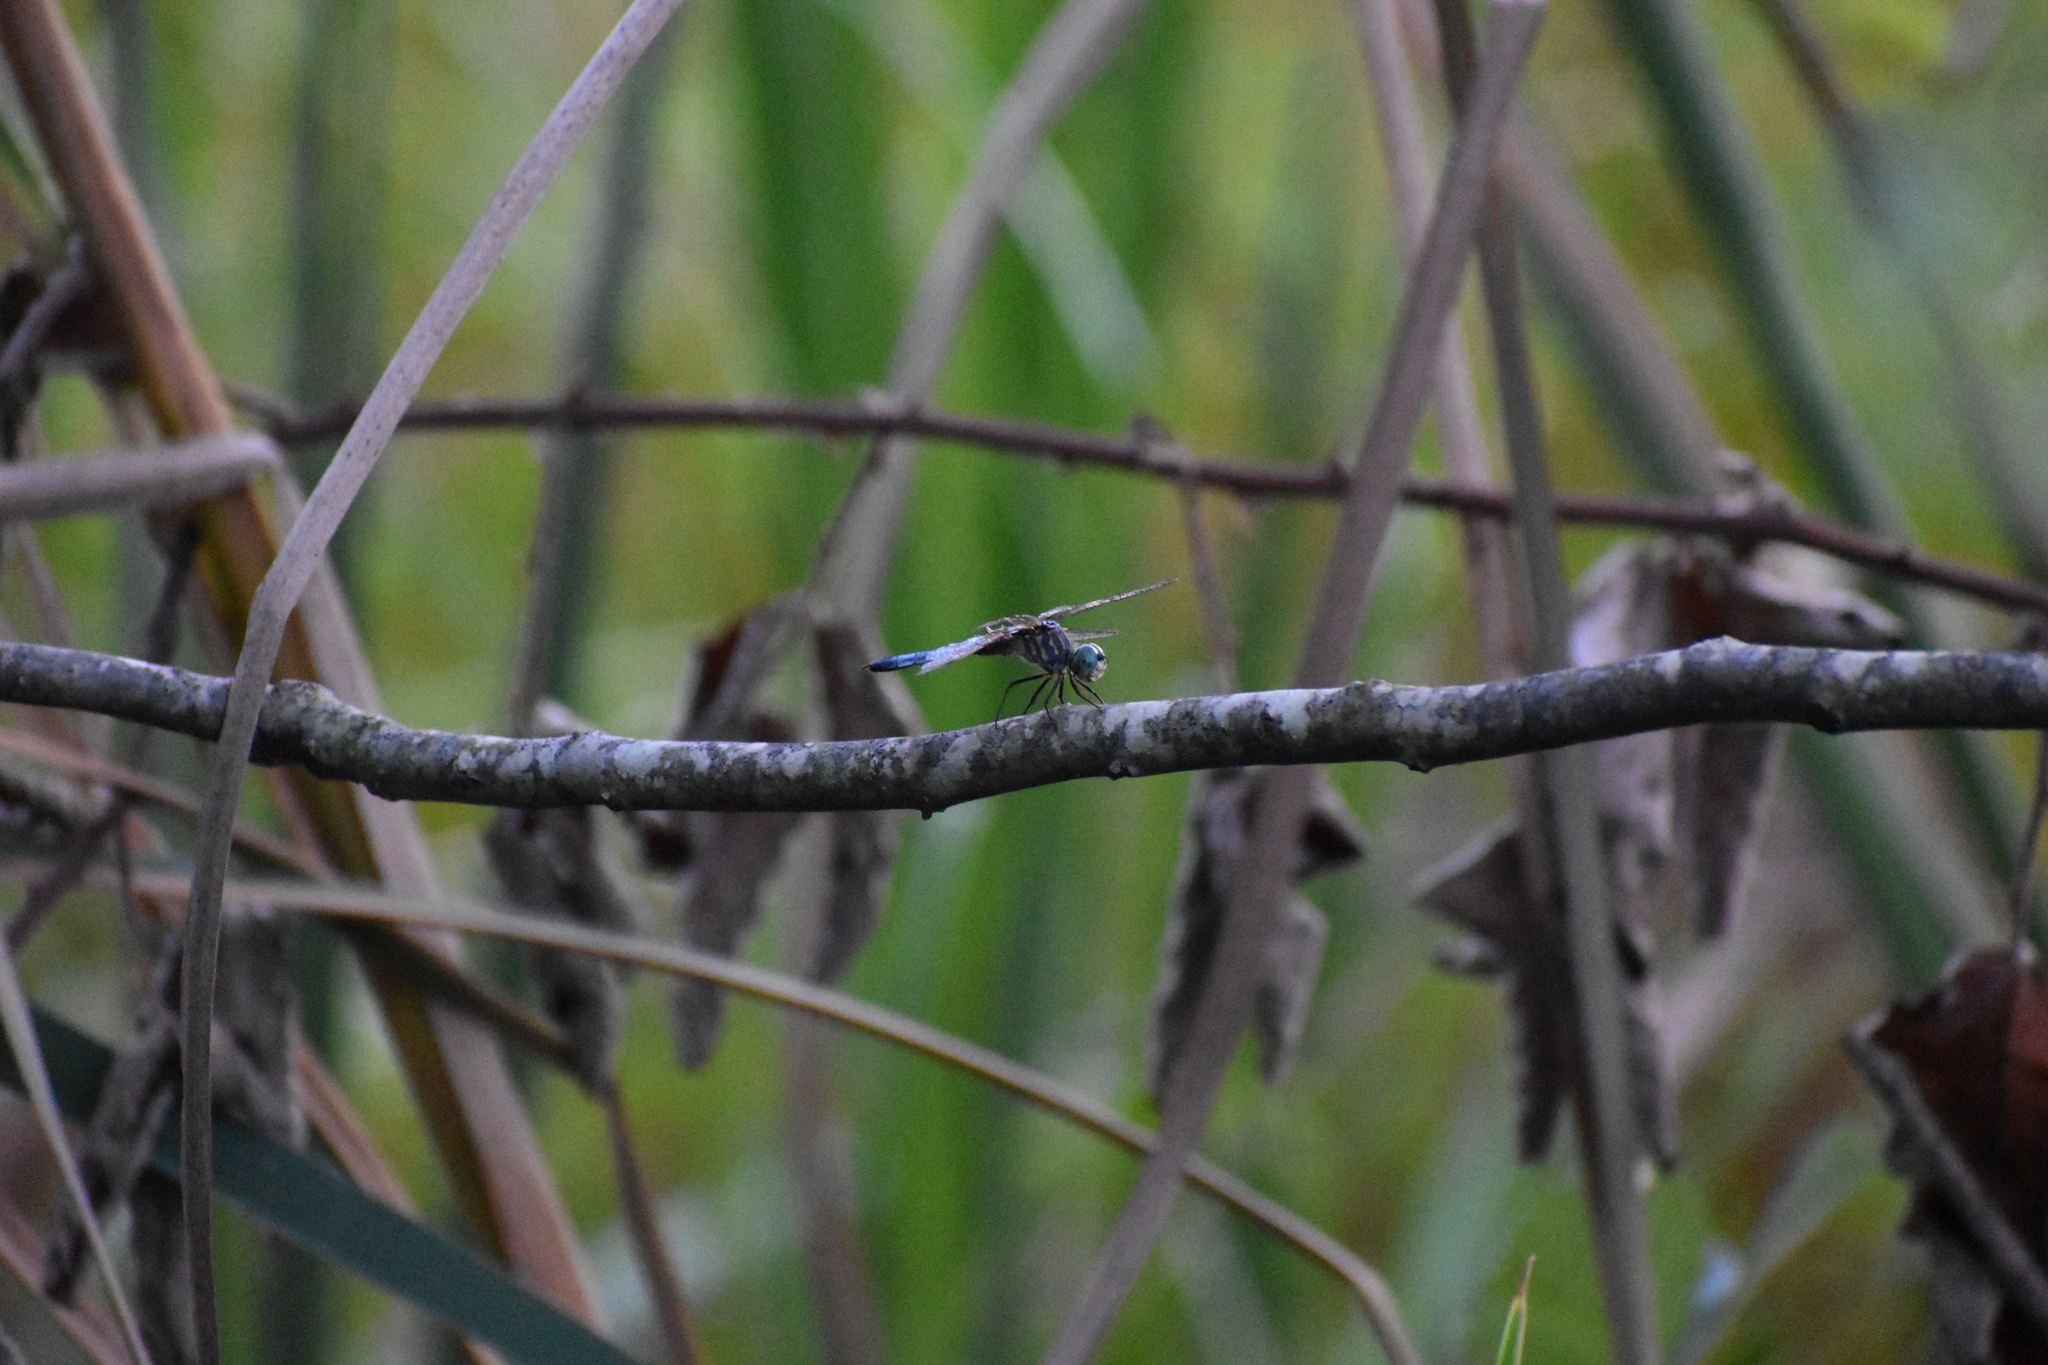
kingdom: Animalia
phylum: Arthropoda
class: Insecta
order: Odonata
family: Libellulidae
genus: Pachydiplax
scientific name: Pachydiplax longipennis
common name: Blue dasher
